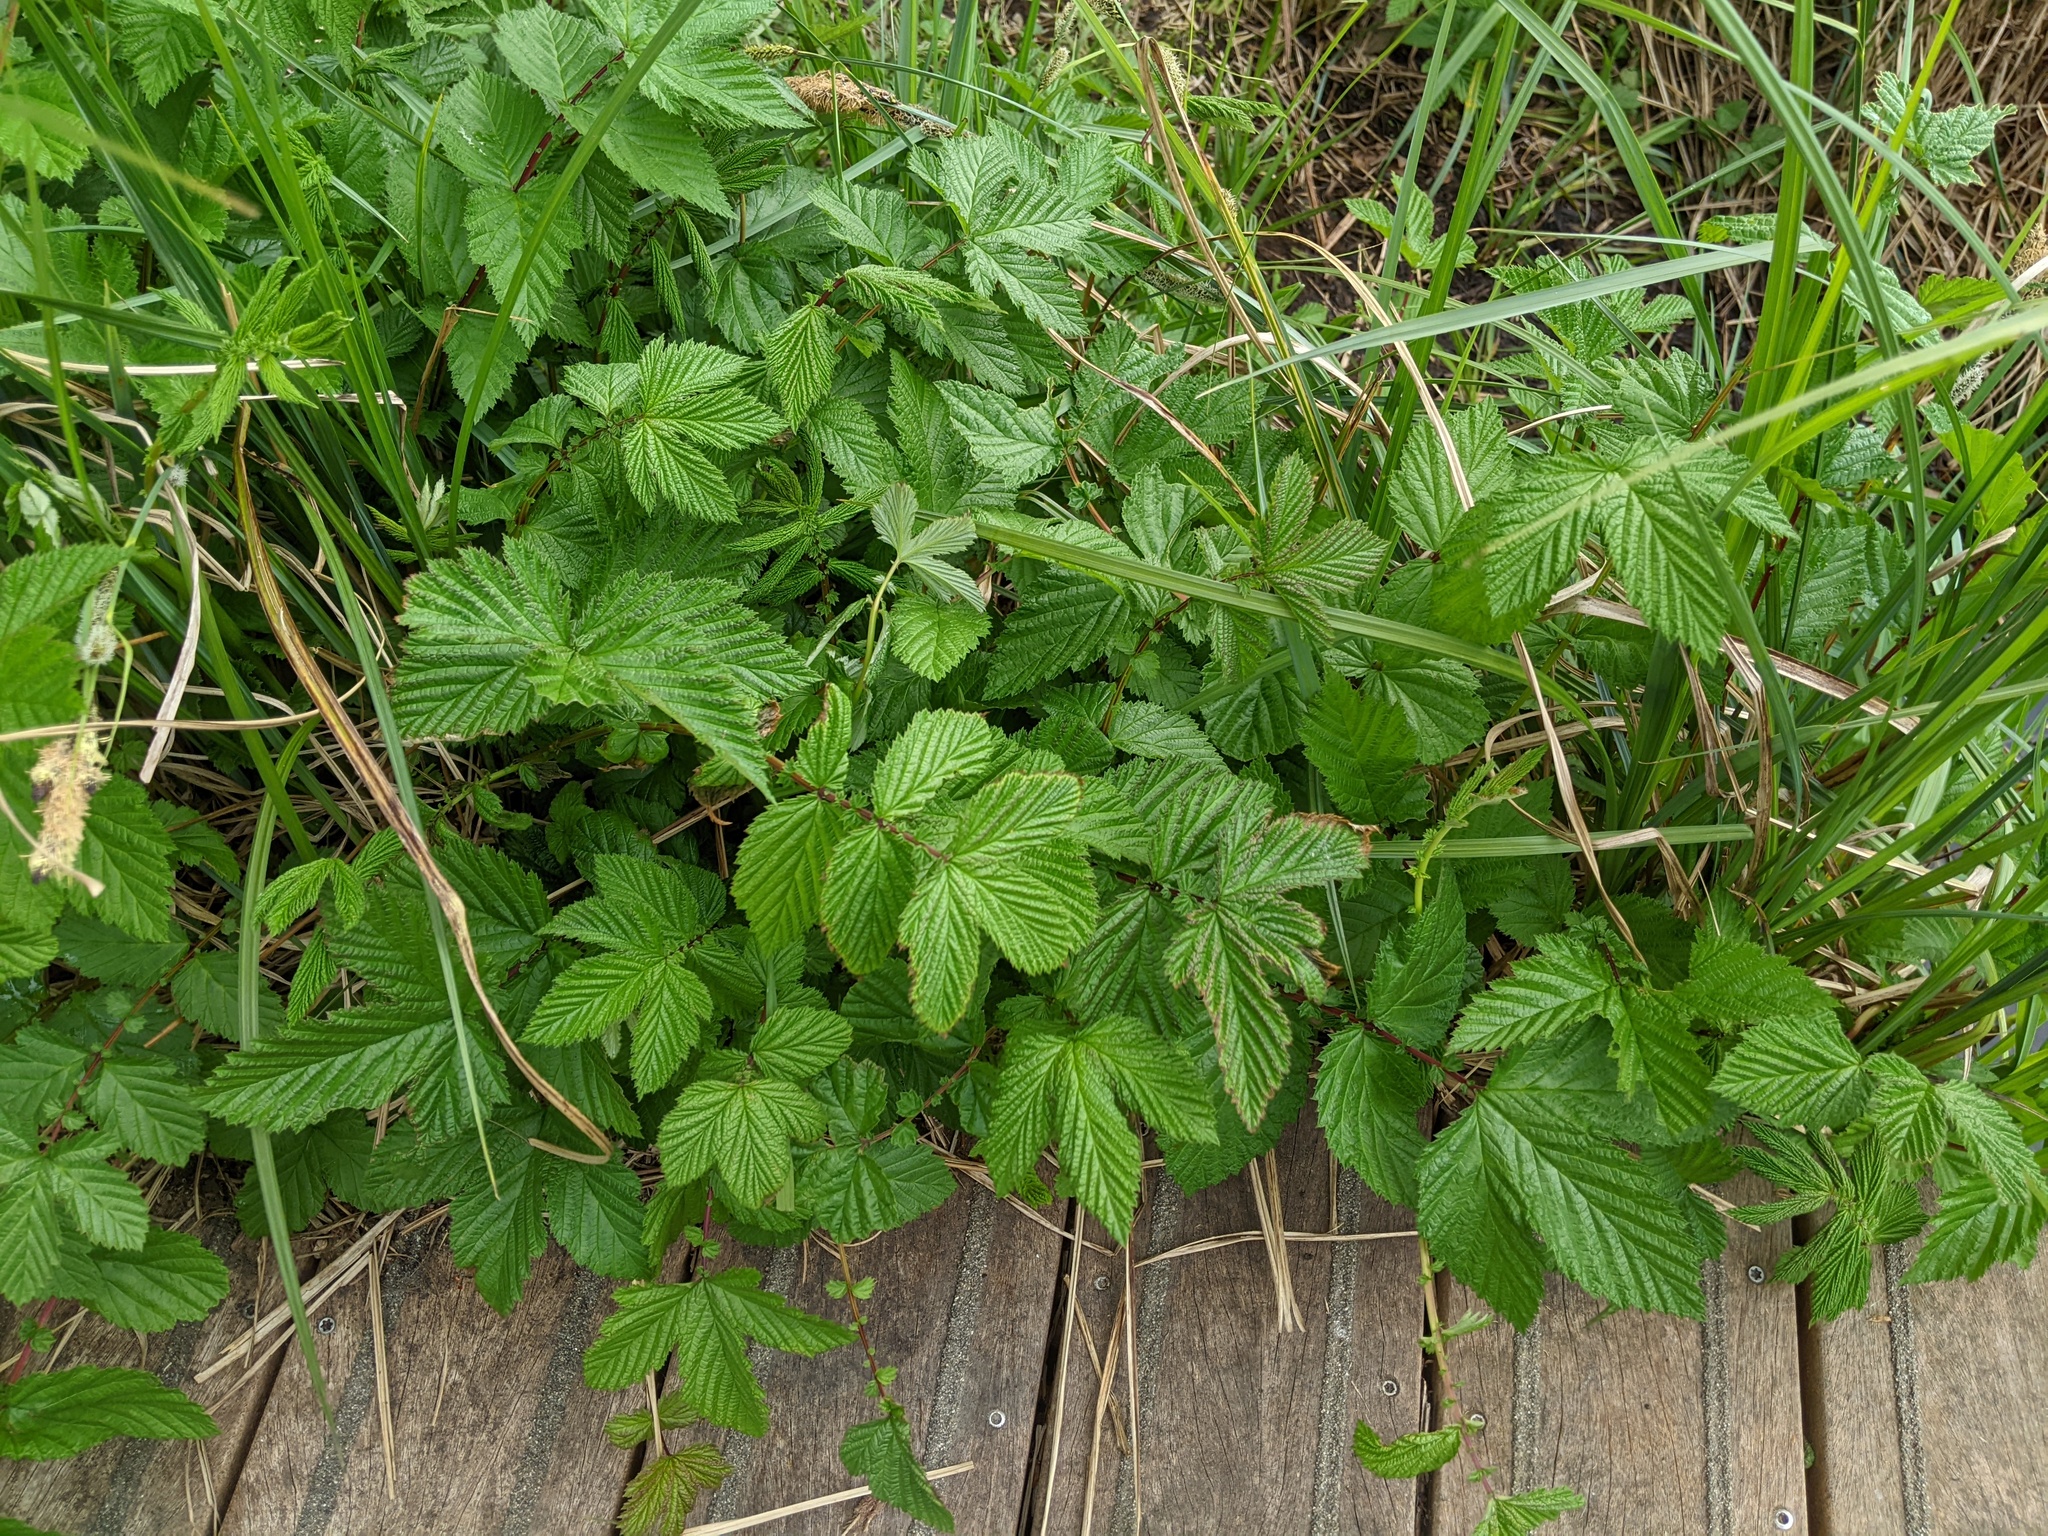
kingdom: Plantae
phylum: Tracheophyta
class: Magnoliopsida
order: Rosales
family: Rosaceae
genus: Filipendula
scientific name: Filipendula ulmaria
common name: Meadowsweet
